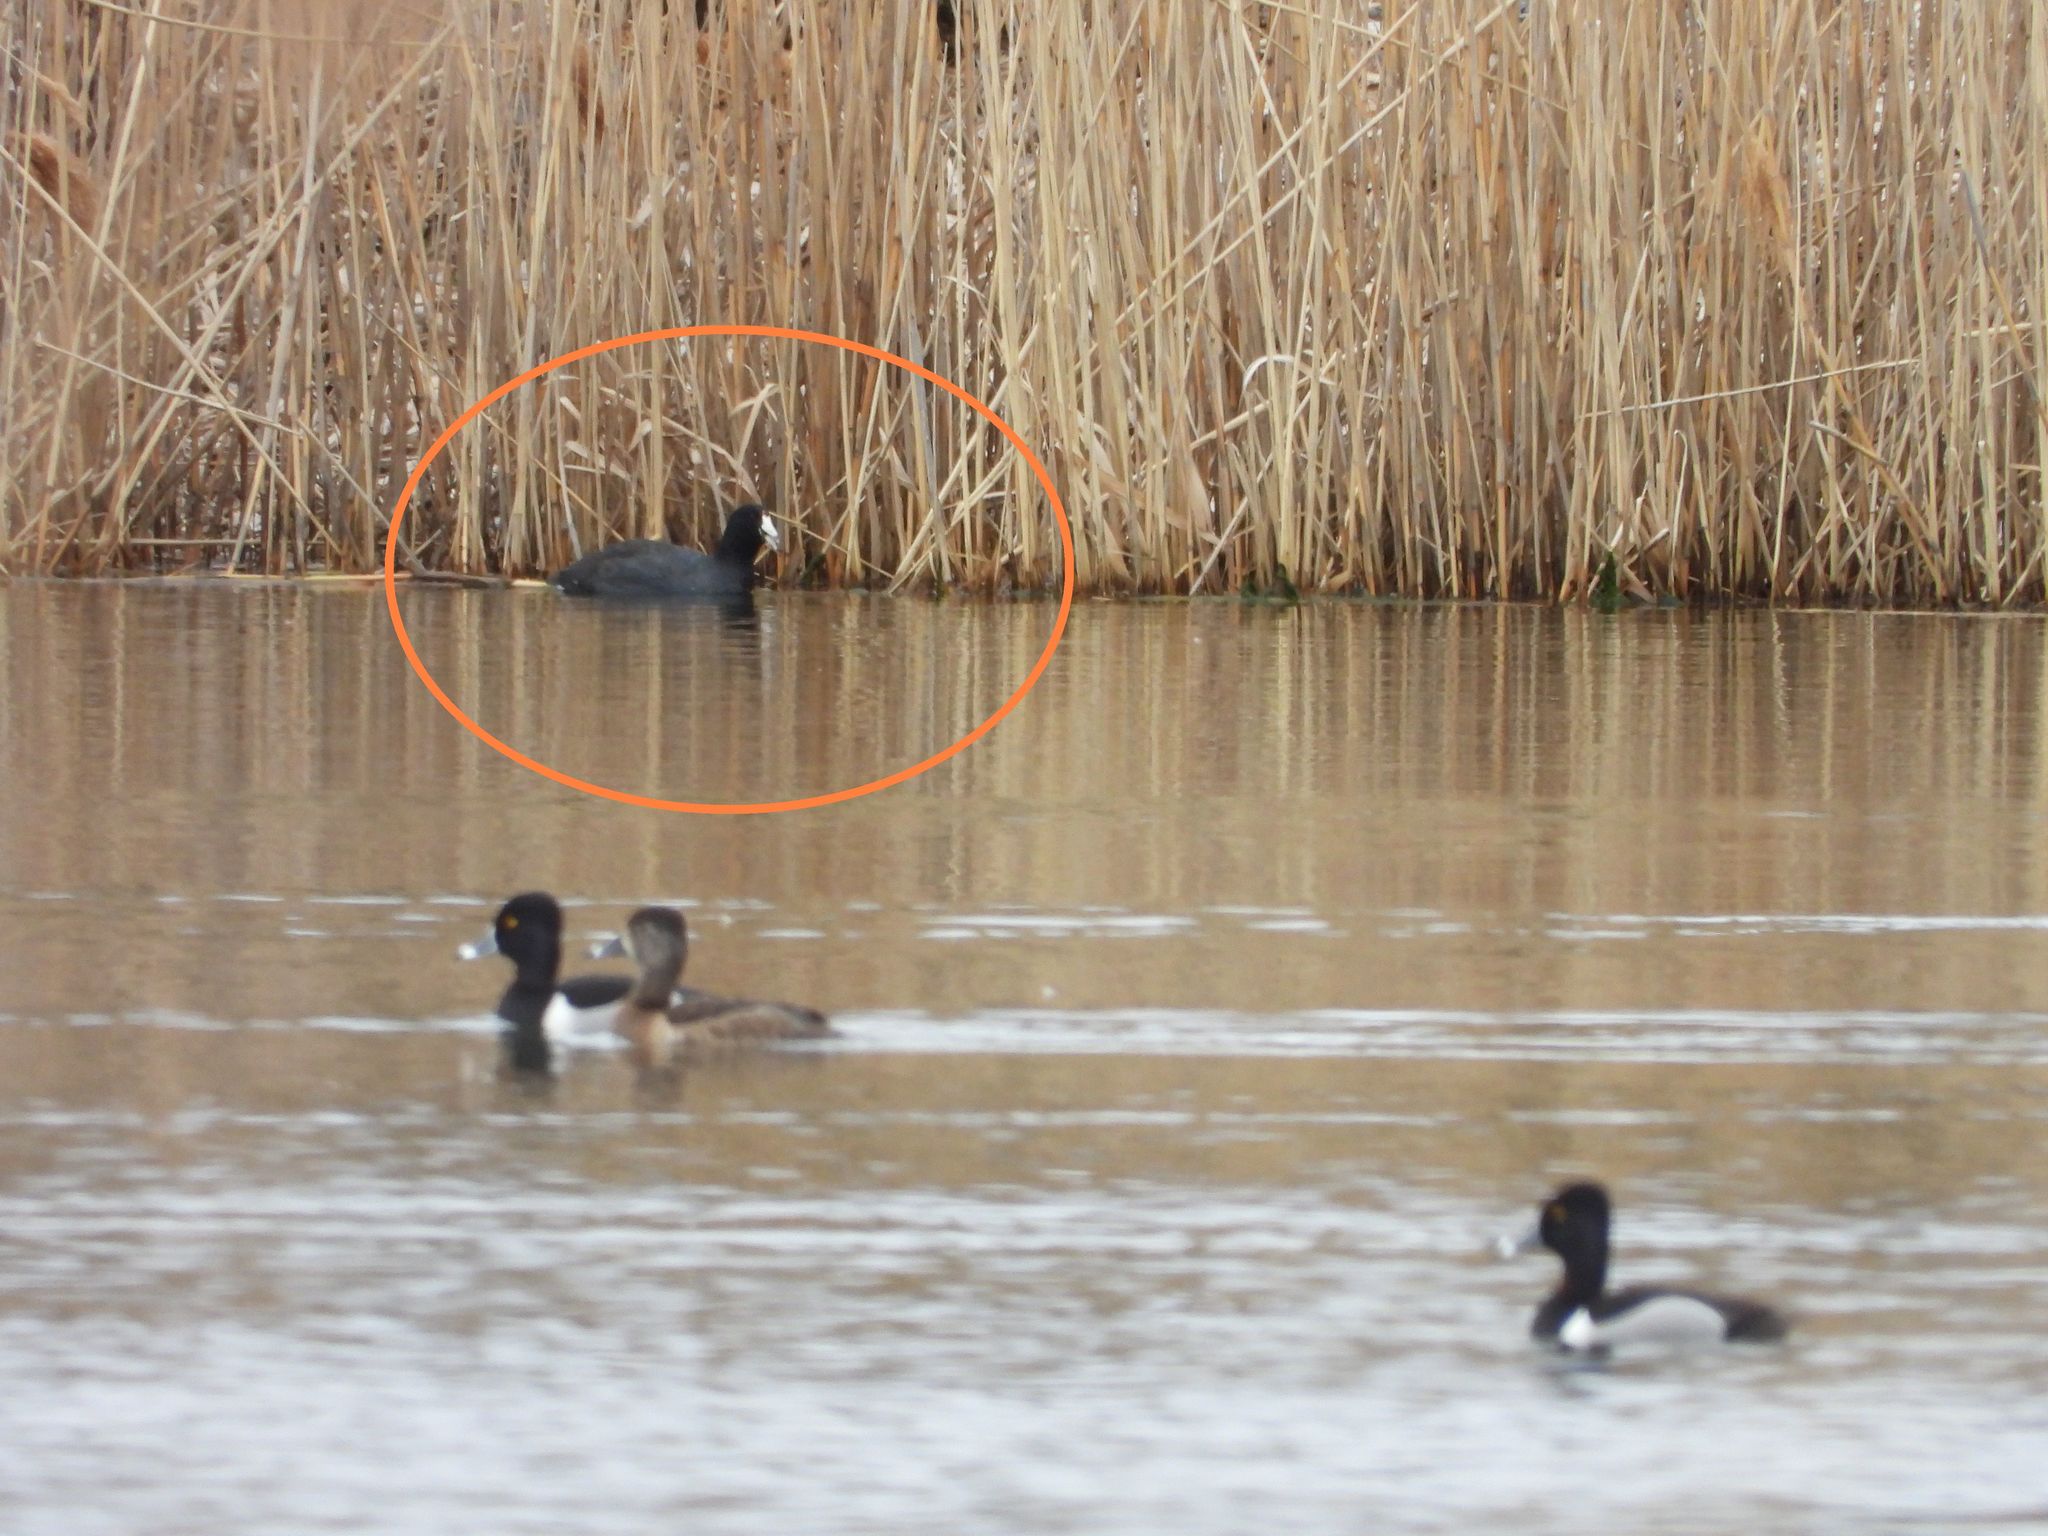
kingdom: Animalia
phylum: Chordata
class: Aves
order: Gruiformes
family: Rallidae
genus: Fulica
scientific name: Fulica americana
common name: American coot
